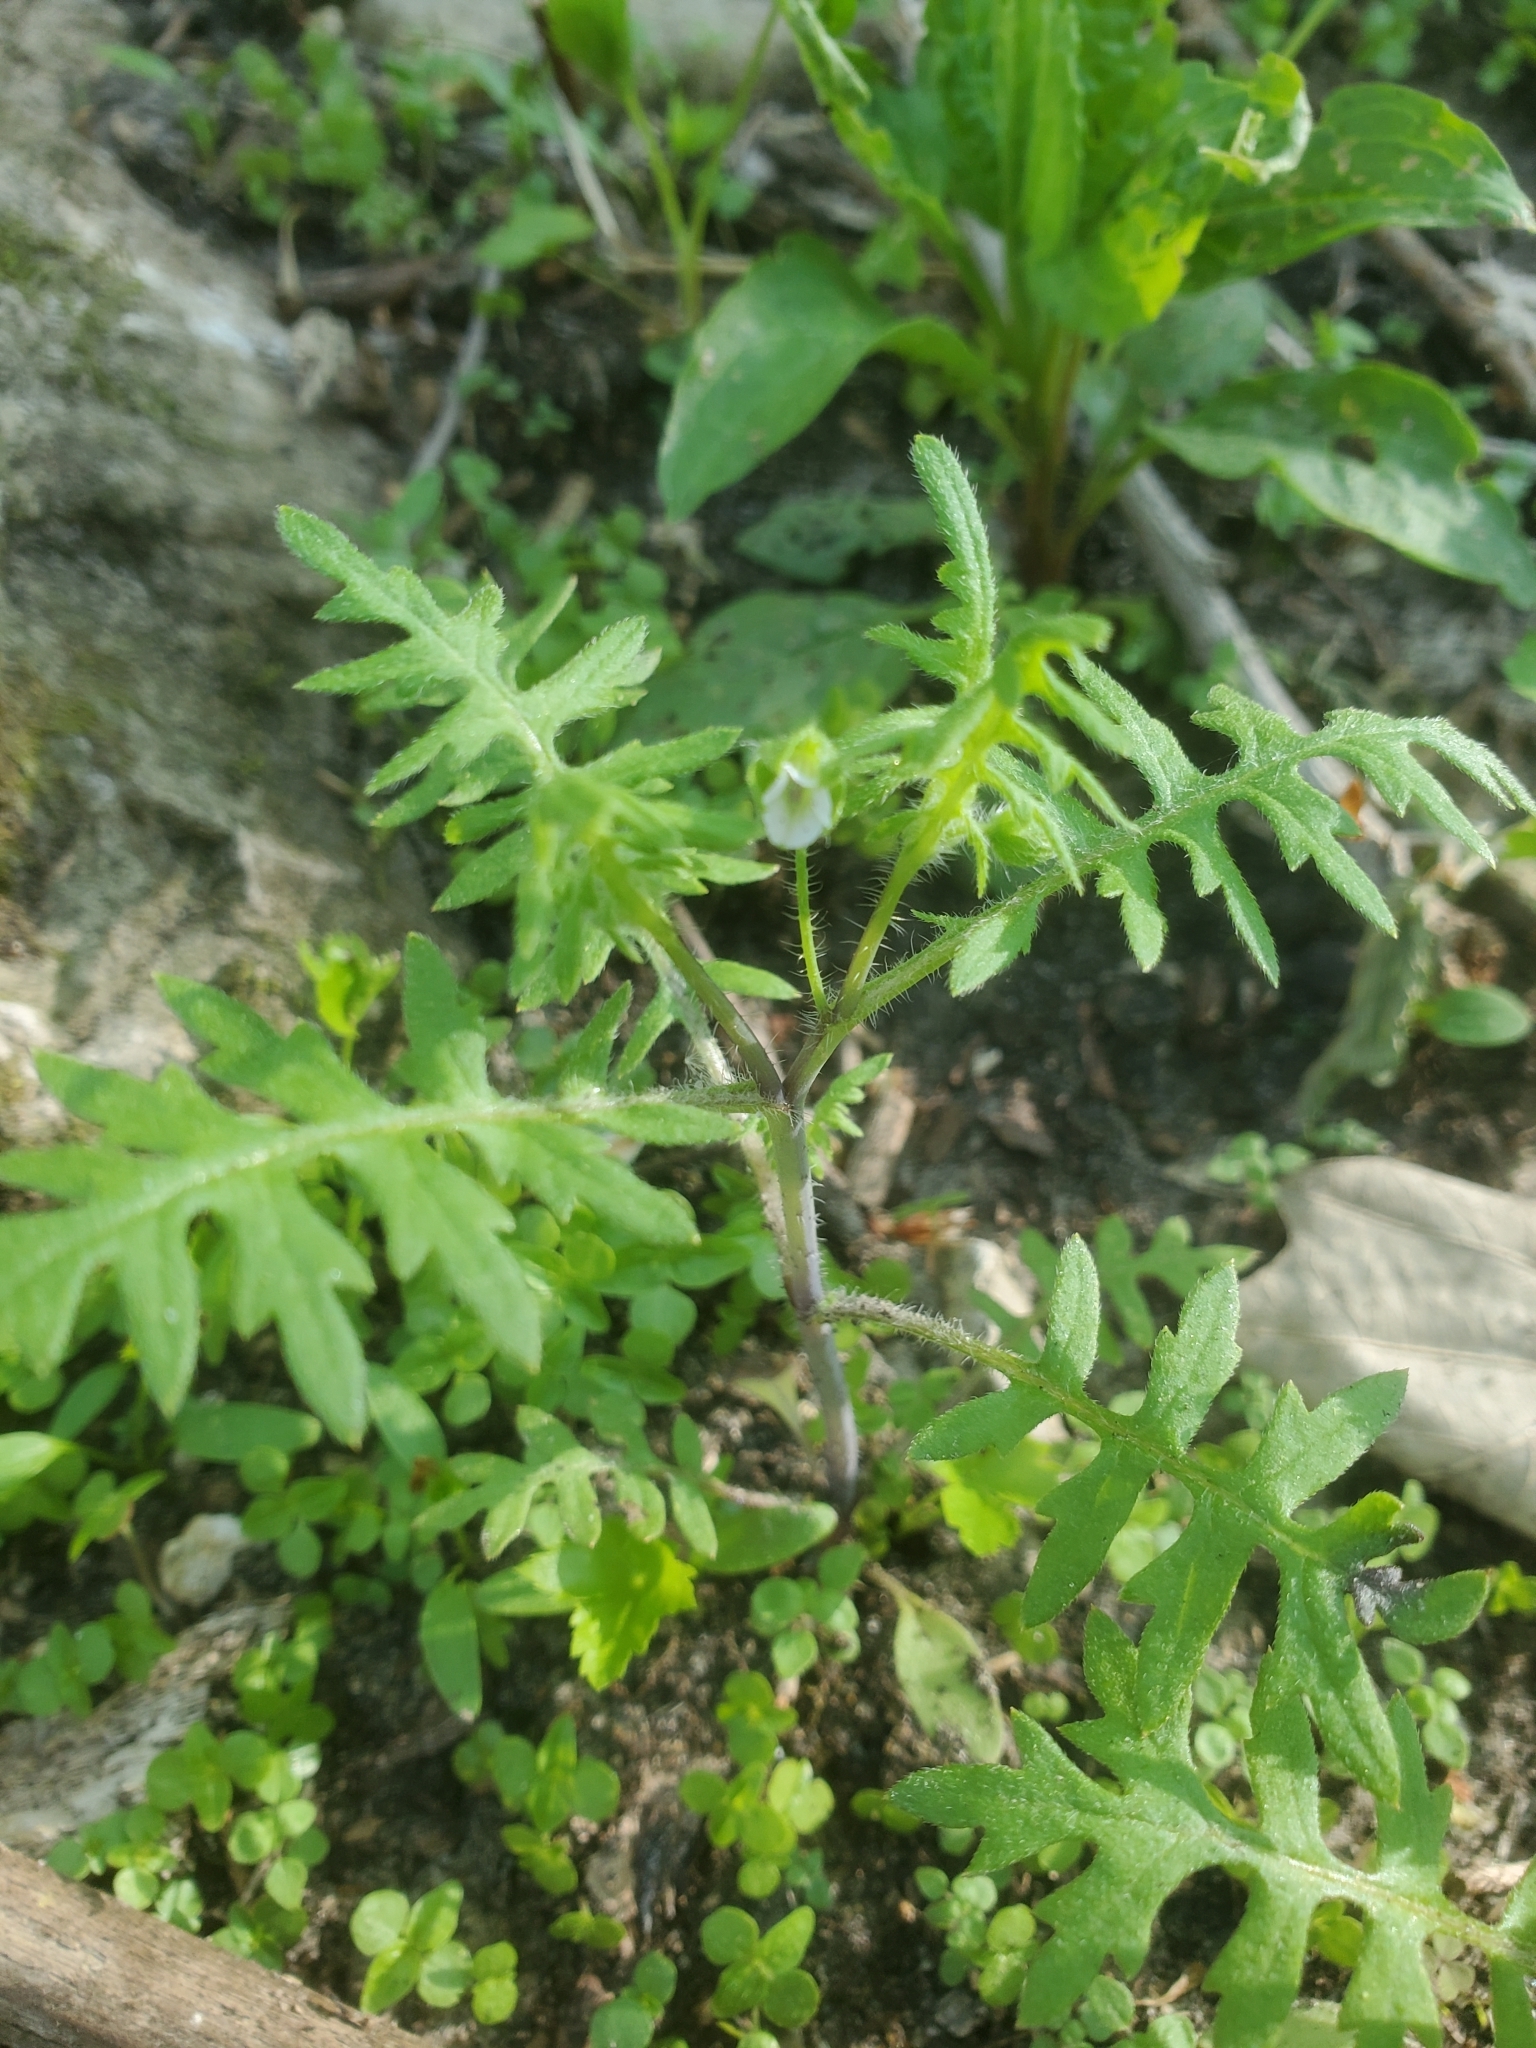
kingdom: Plantae
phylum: Tracheophyta
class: Magnoliopsida
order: Boraginales
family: Hydrophyllaceae
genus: Ellisia
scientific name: Ellisia nyctelea
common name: Aunt lucy
